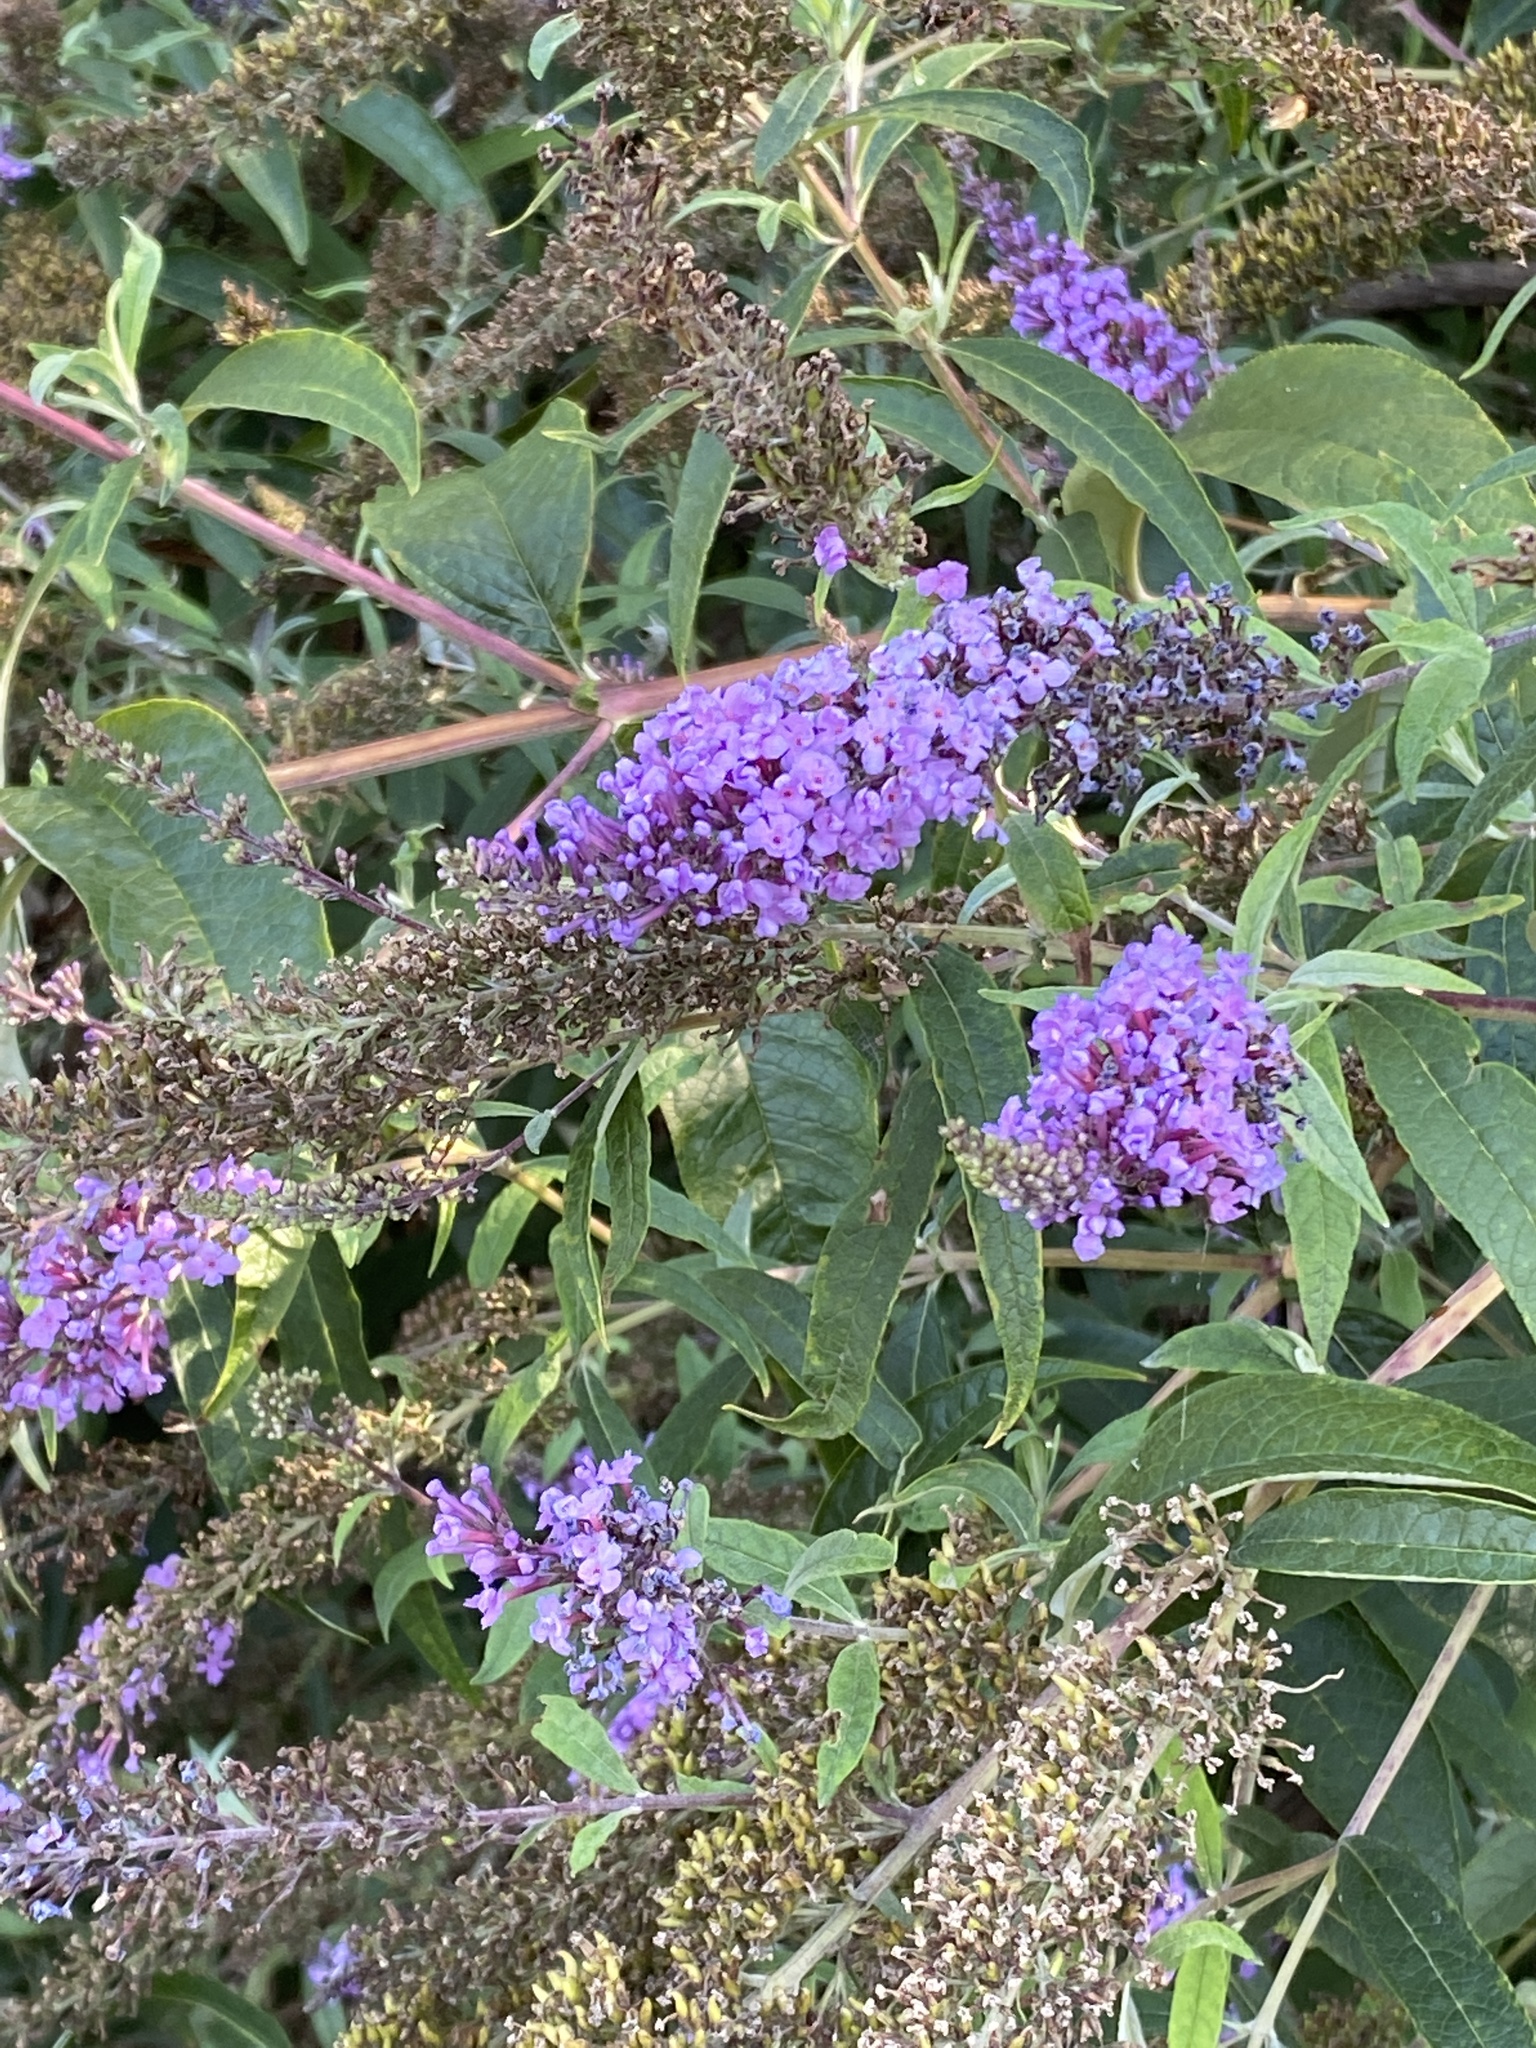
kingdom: Plantae
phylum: Tracheophyta
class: Magnoliopsida
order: Lamiales
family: Scrophulariaceae
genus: Buddleja
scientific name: Buddleja davidii
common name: Butterfly-bush
